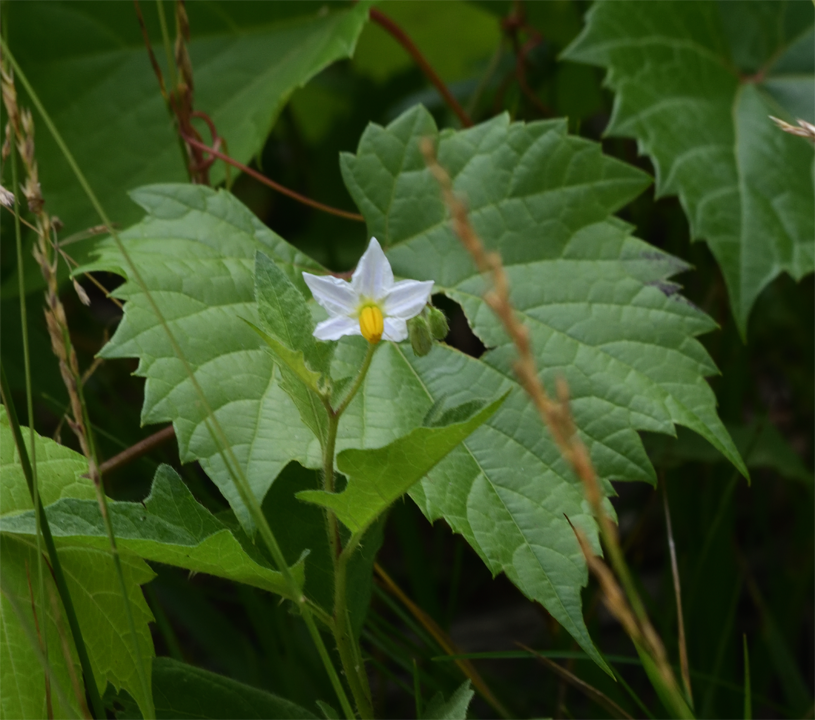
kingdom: Plantae
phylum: Tracheophyta
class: Magnoliopsida
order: Solanales
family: Solanaceae
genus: Solanum
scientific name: Solanum carolinense
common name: Horse-nettle
